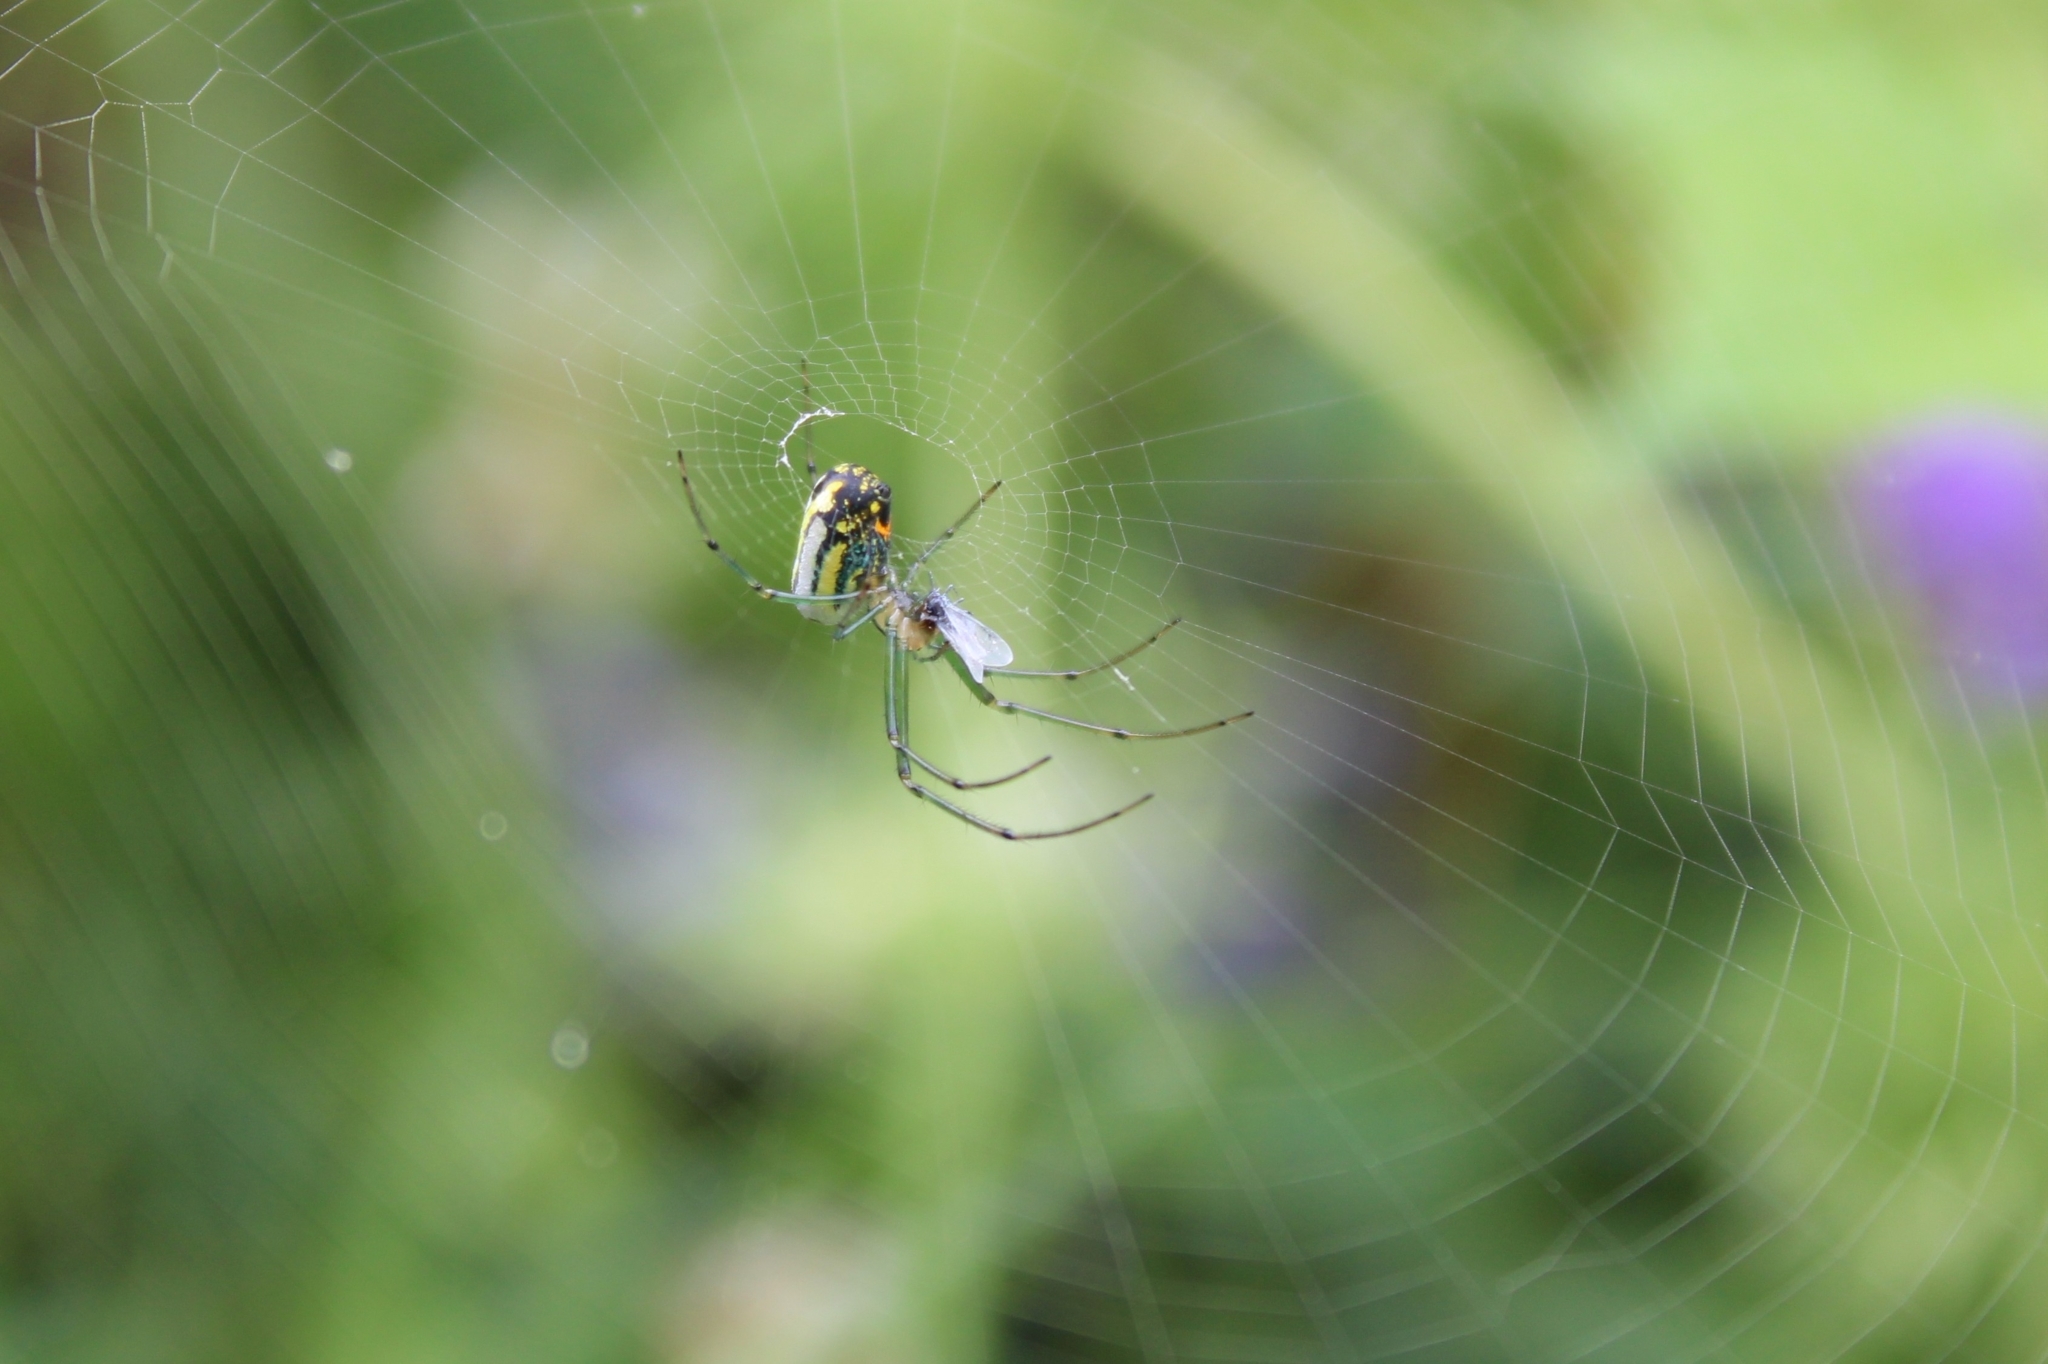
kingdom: Animalia
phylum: Arthropoda
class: Arachnida
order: Araneae
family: Tetragnathidae
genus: Leucauge
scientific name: Leucauge venusta
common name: Longjawed orb weavers
